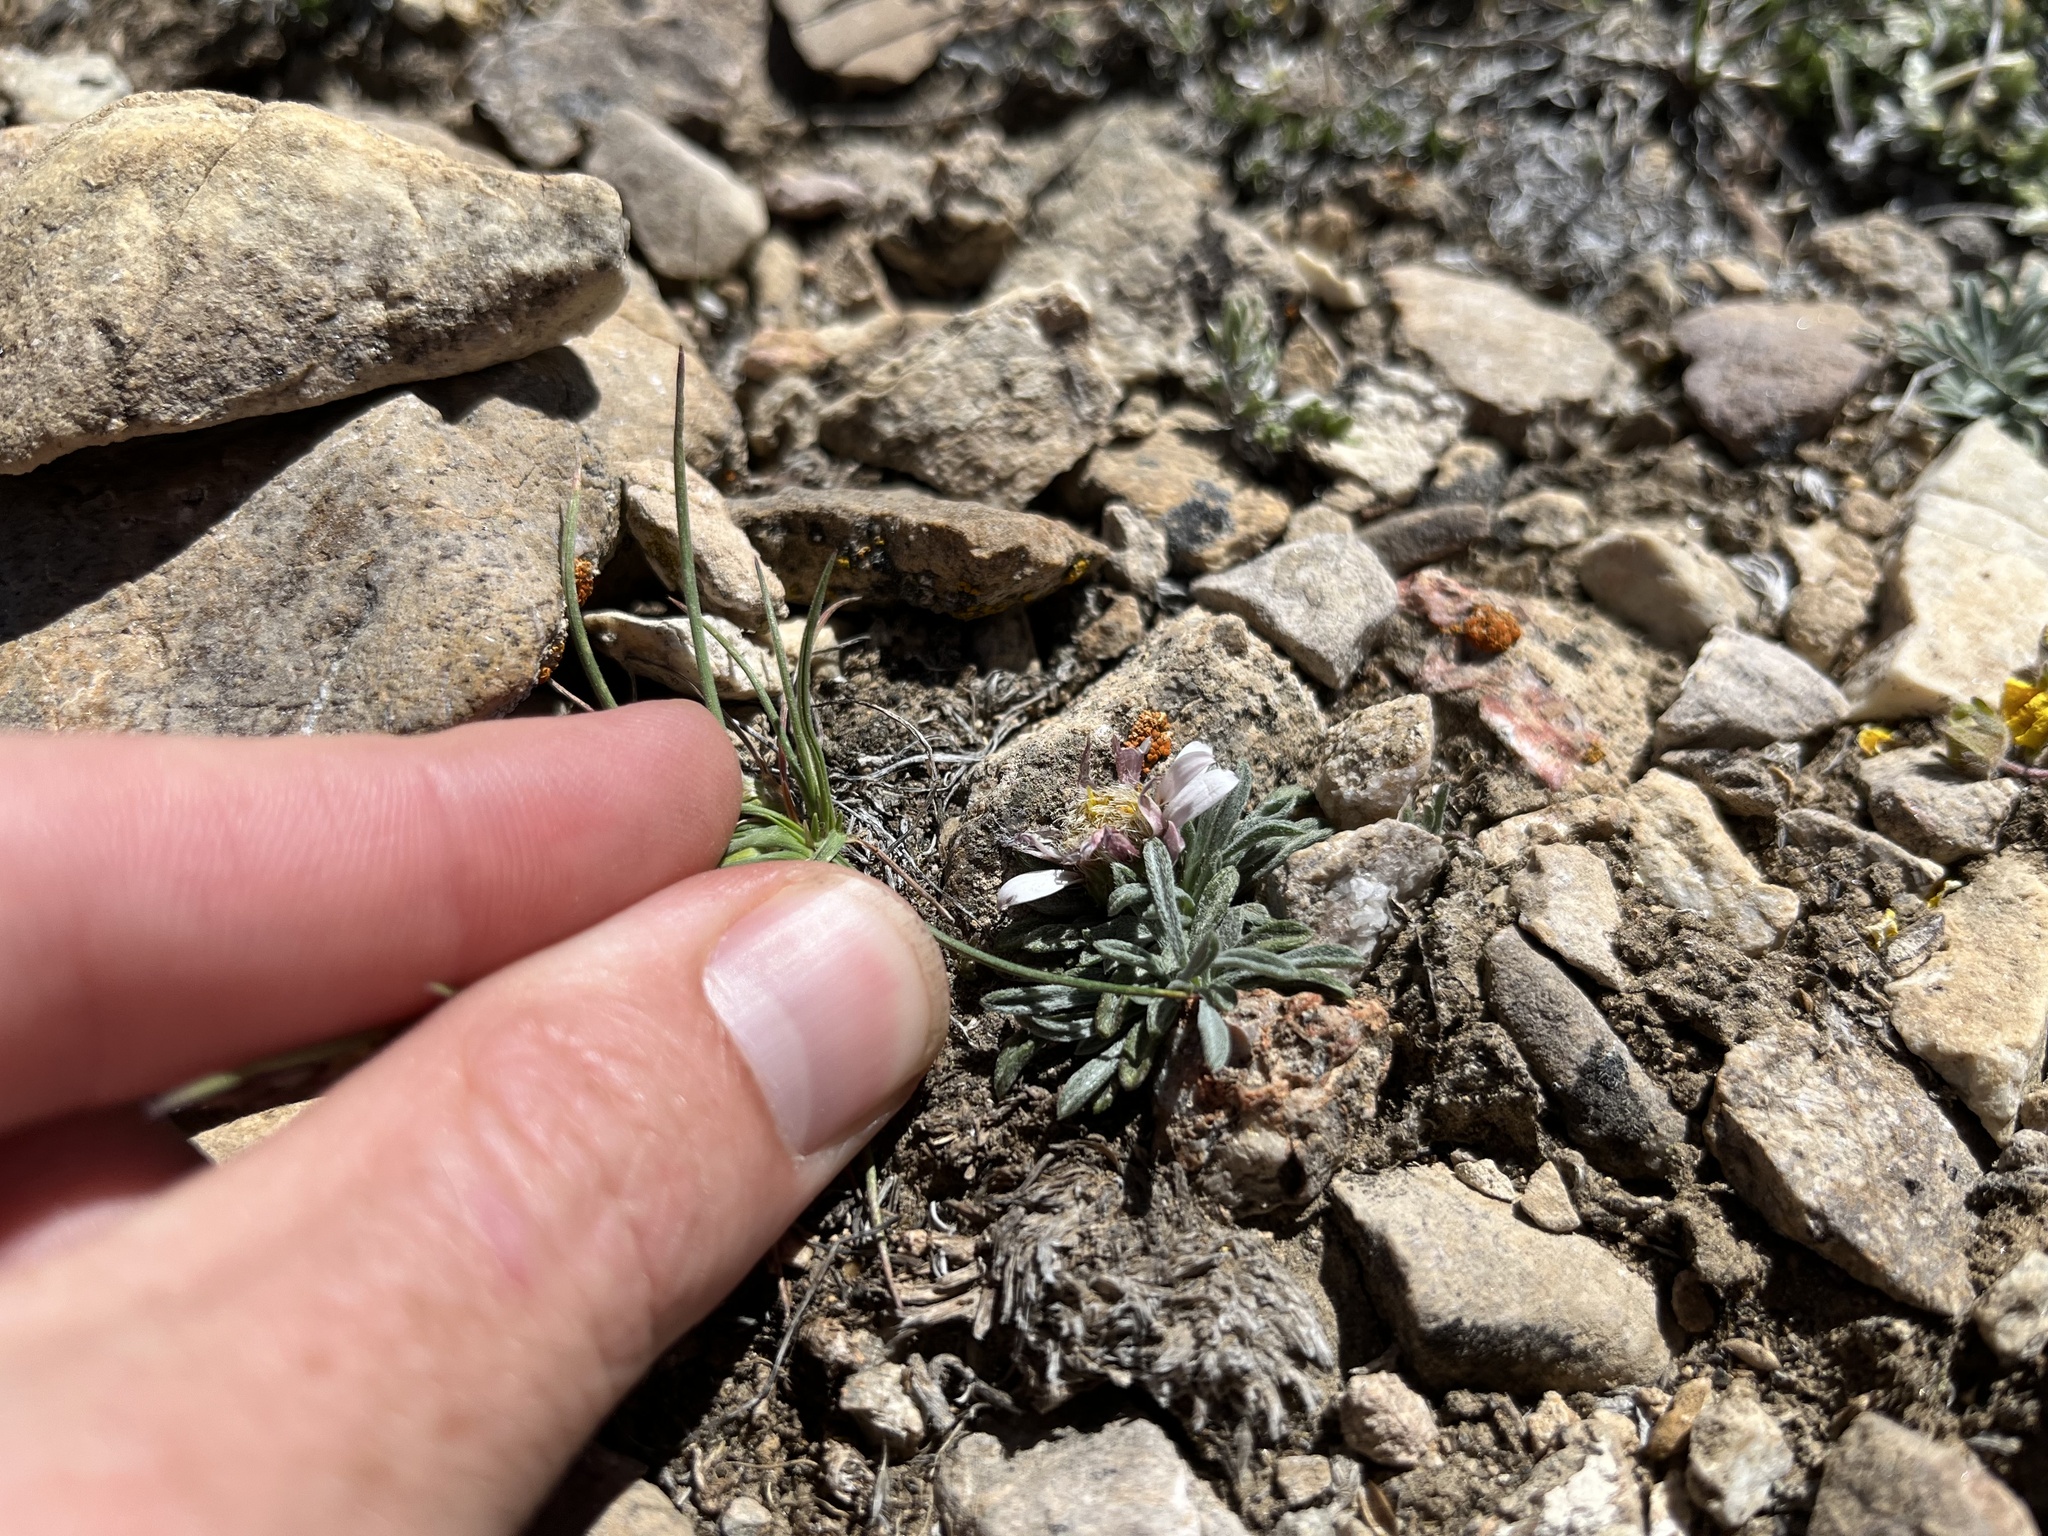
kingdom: Plantae
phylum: Tracheophyta
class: Magnoliopsida
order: Asterales
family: Asteraceae
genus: Townsendia
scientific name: Townsendia leptotes
